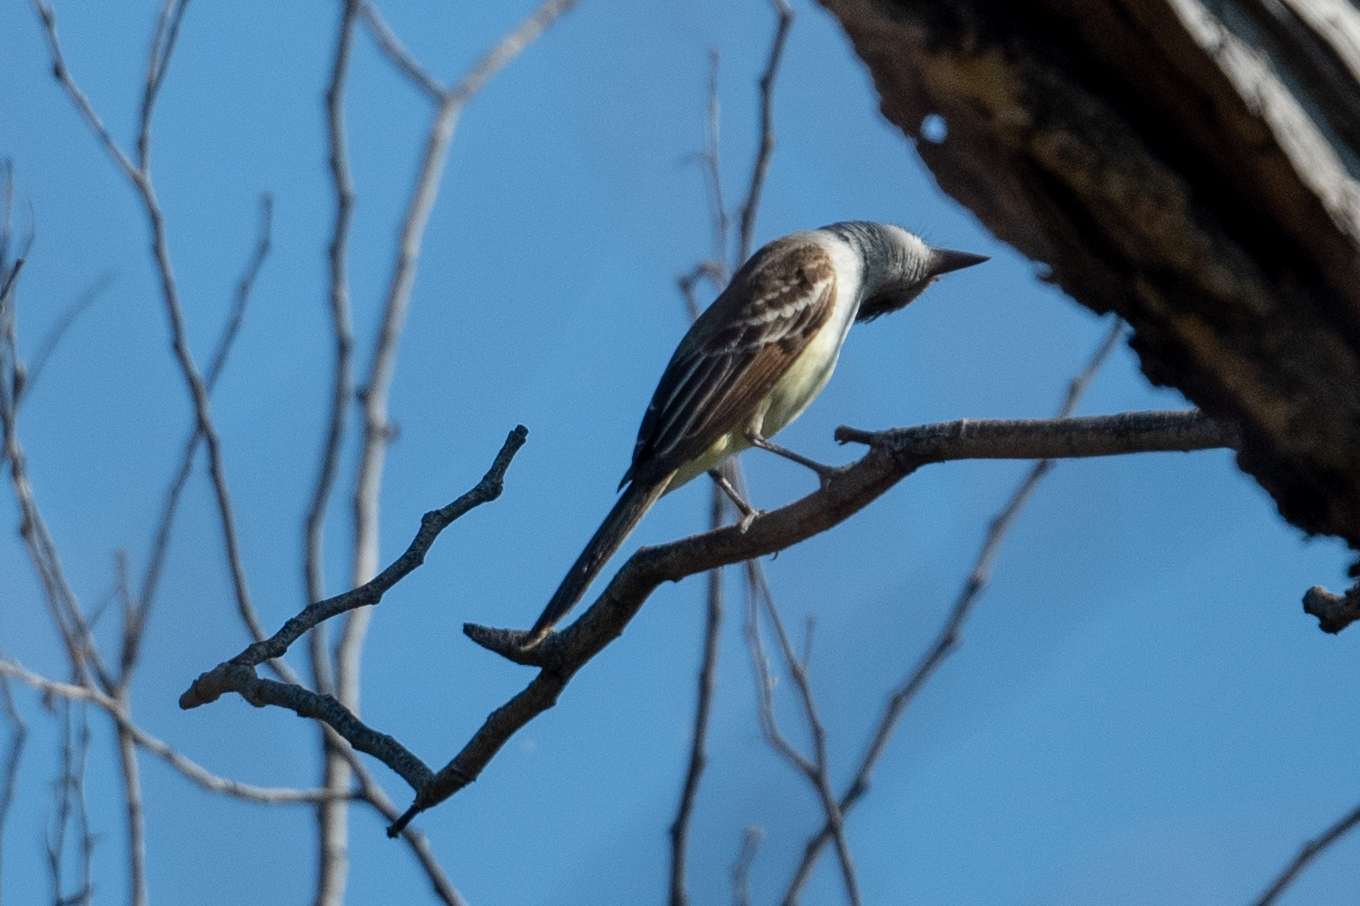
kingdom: Animalia
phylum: Chordata
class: Aves
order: Passeriformes
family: Tyrannidae
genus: Myiarchus
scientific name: Myiarchus cinerascens
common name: Ash-throated flycatcher
